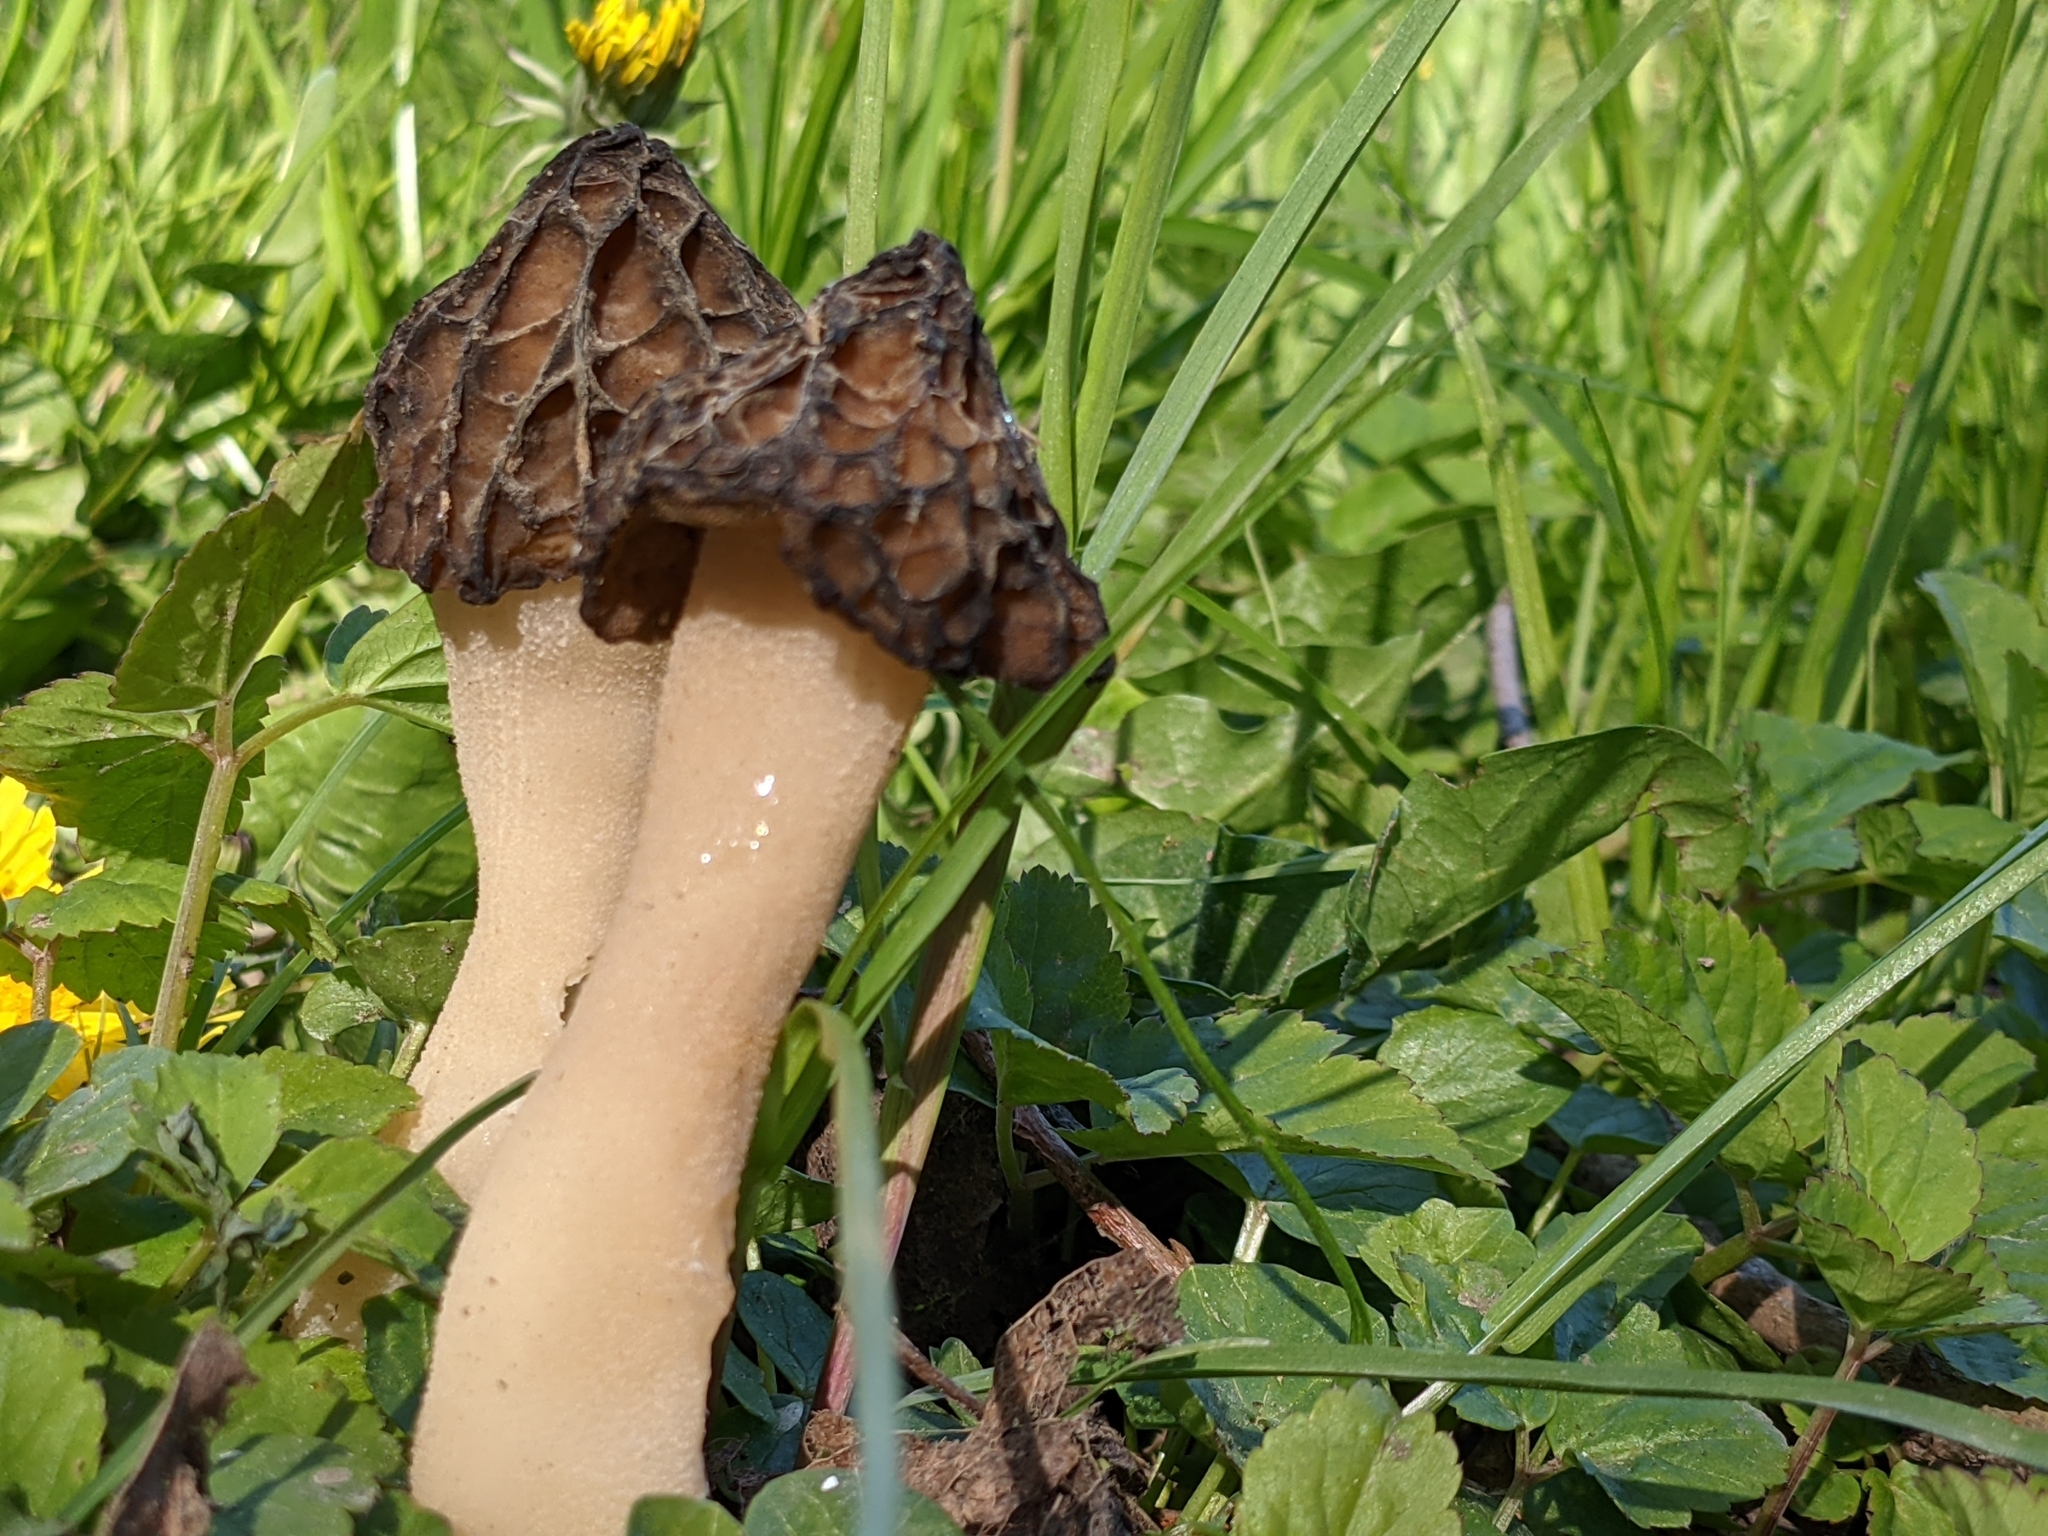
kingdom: Fungi
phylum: Ascomycota
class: Pezizomycetes
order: Pezizales
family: Morchellaceae
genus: Morchella
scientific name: Morchella semilibera
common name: Semifree morel
